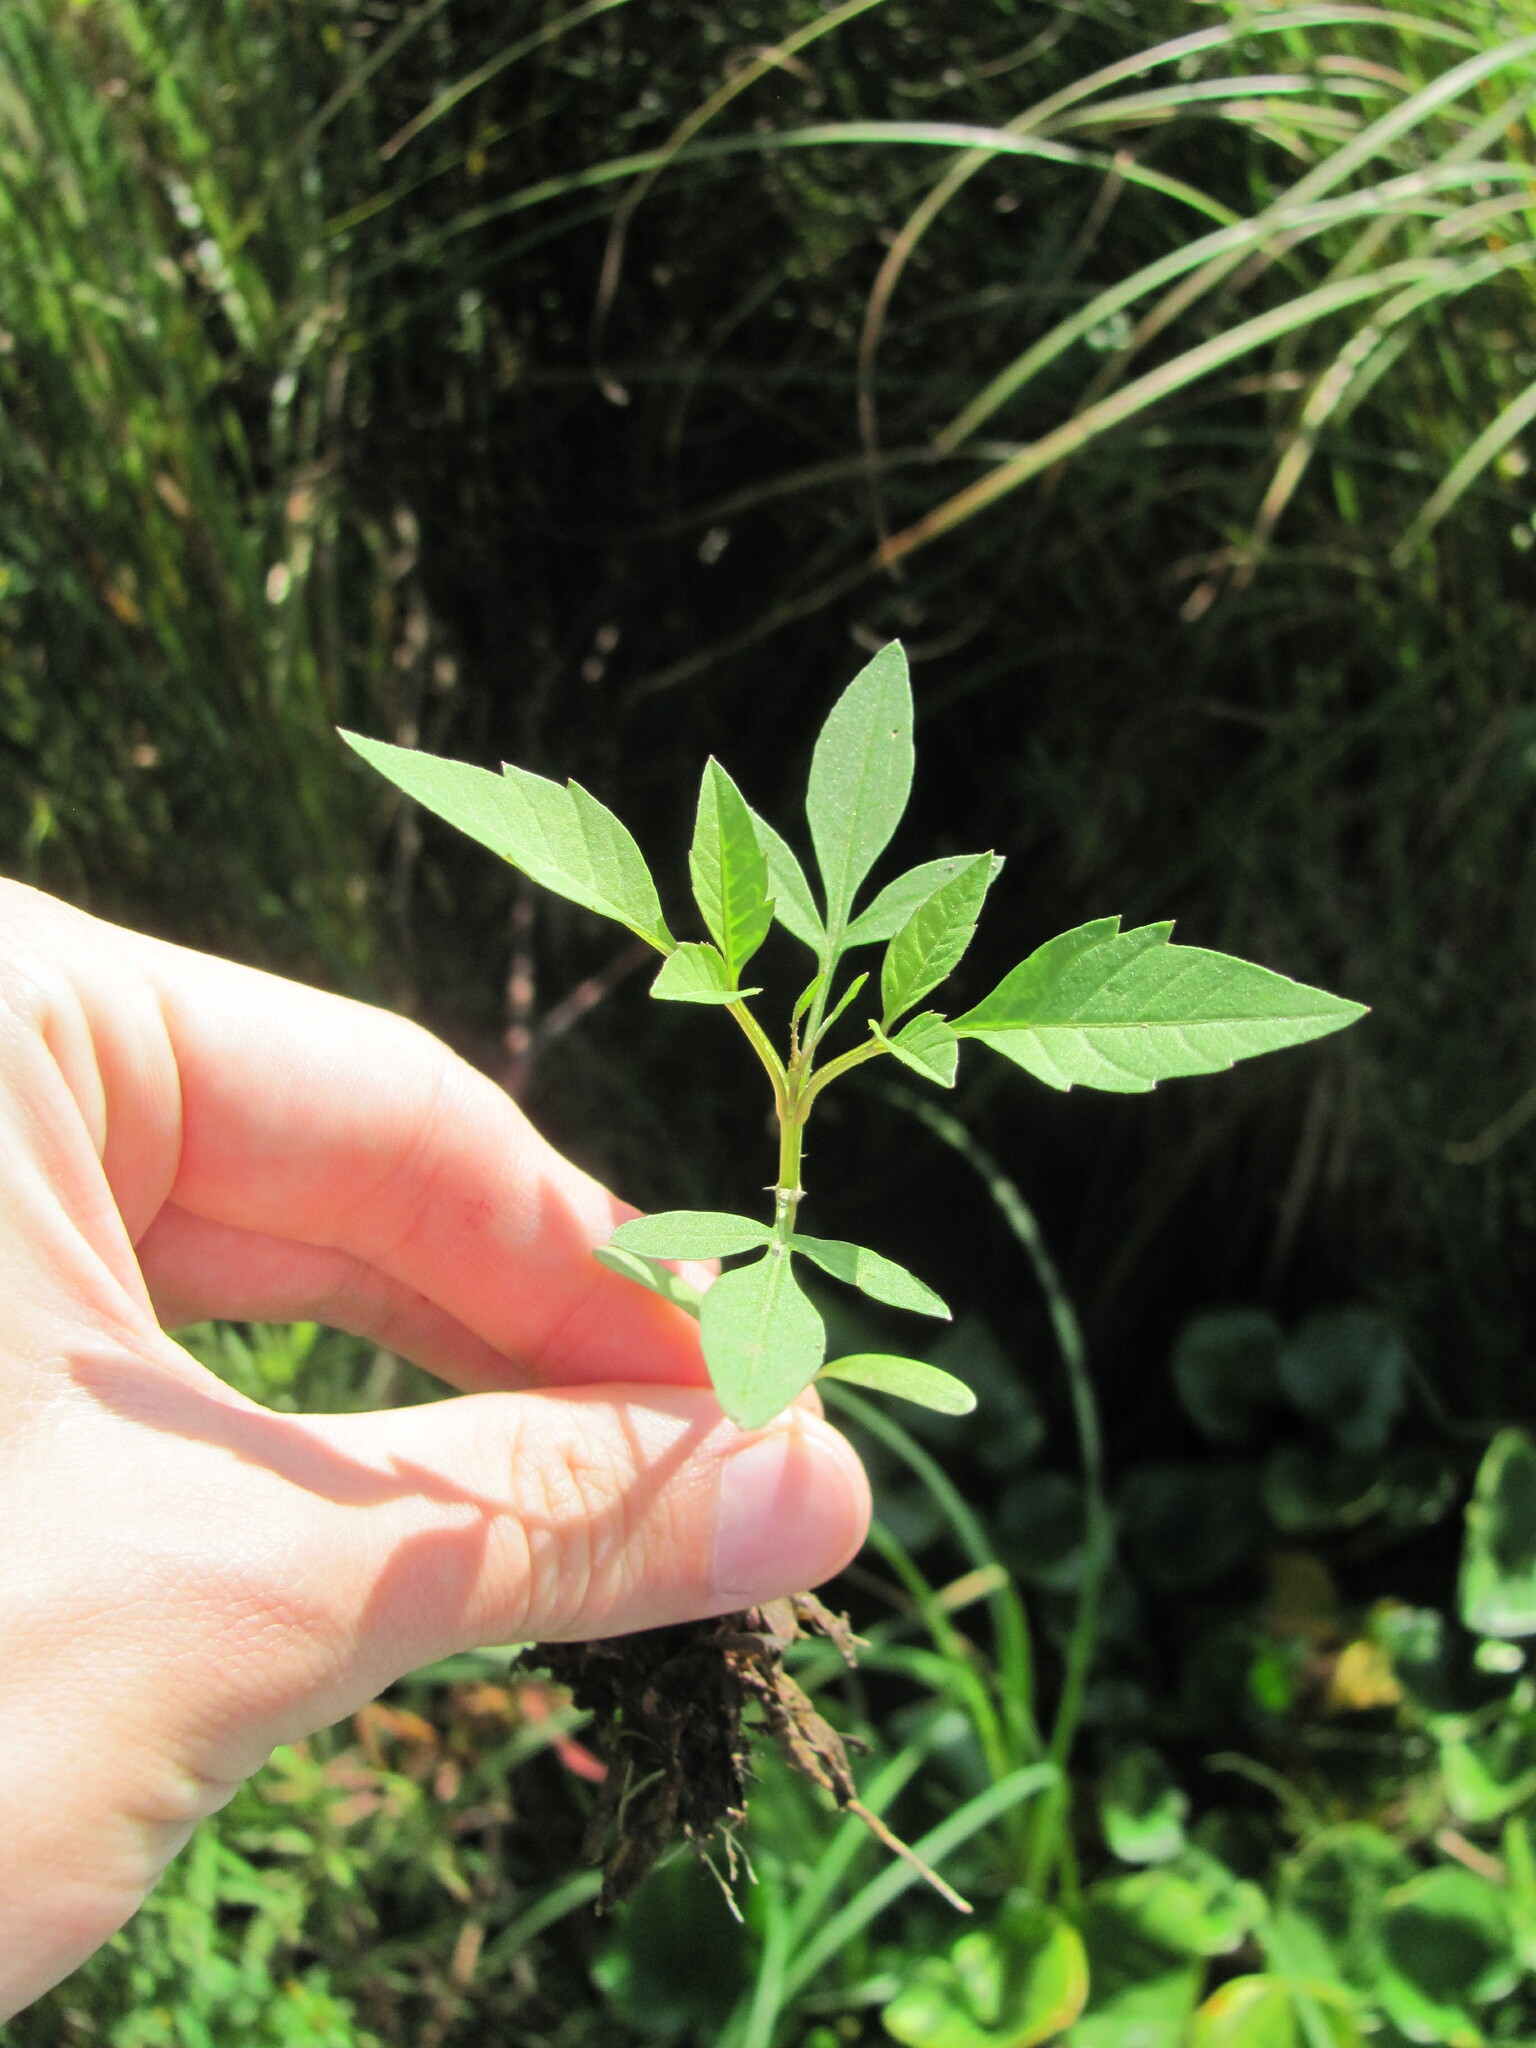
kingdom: Plantae
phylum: Tracheophyta
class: Magnoliopsida
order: Asterales
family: Asteraceae
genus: Bidens
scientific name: Bidens frondosa
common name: Beggarticks
